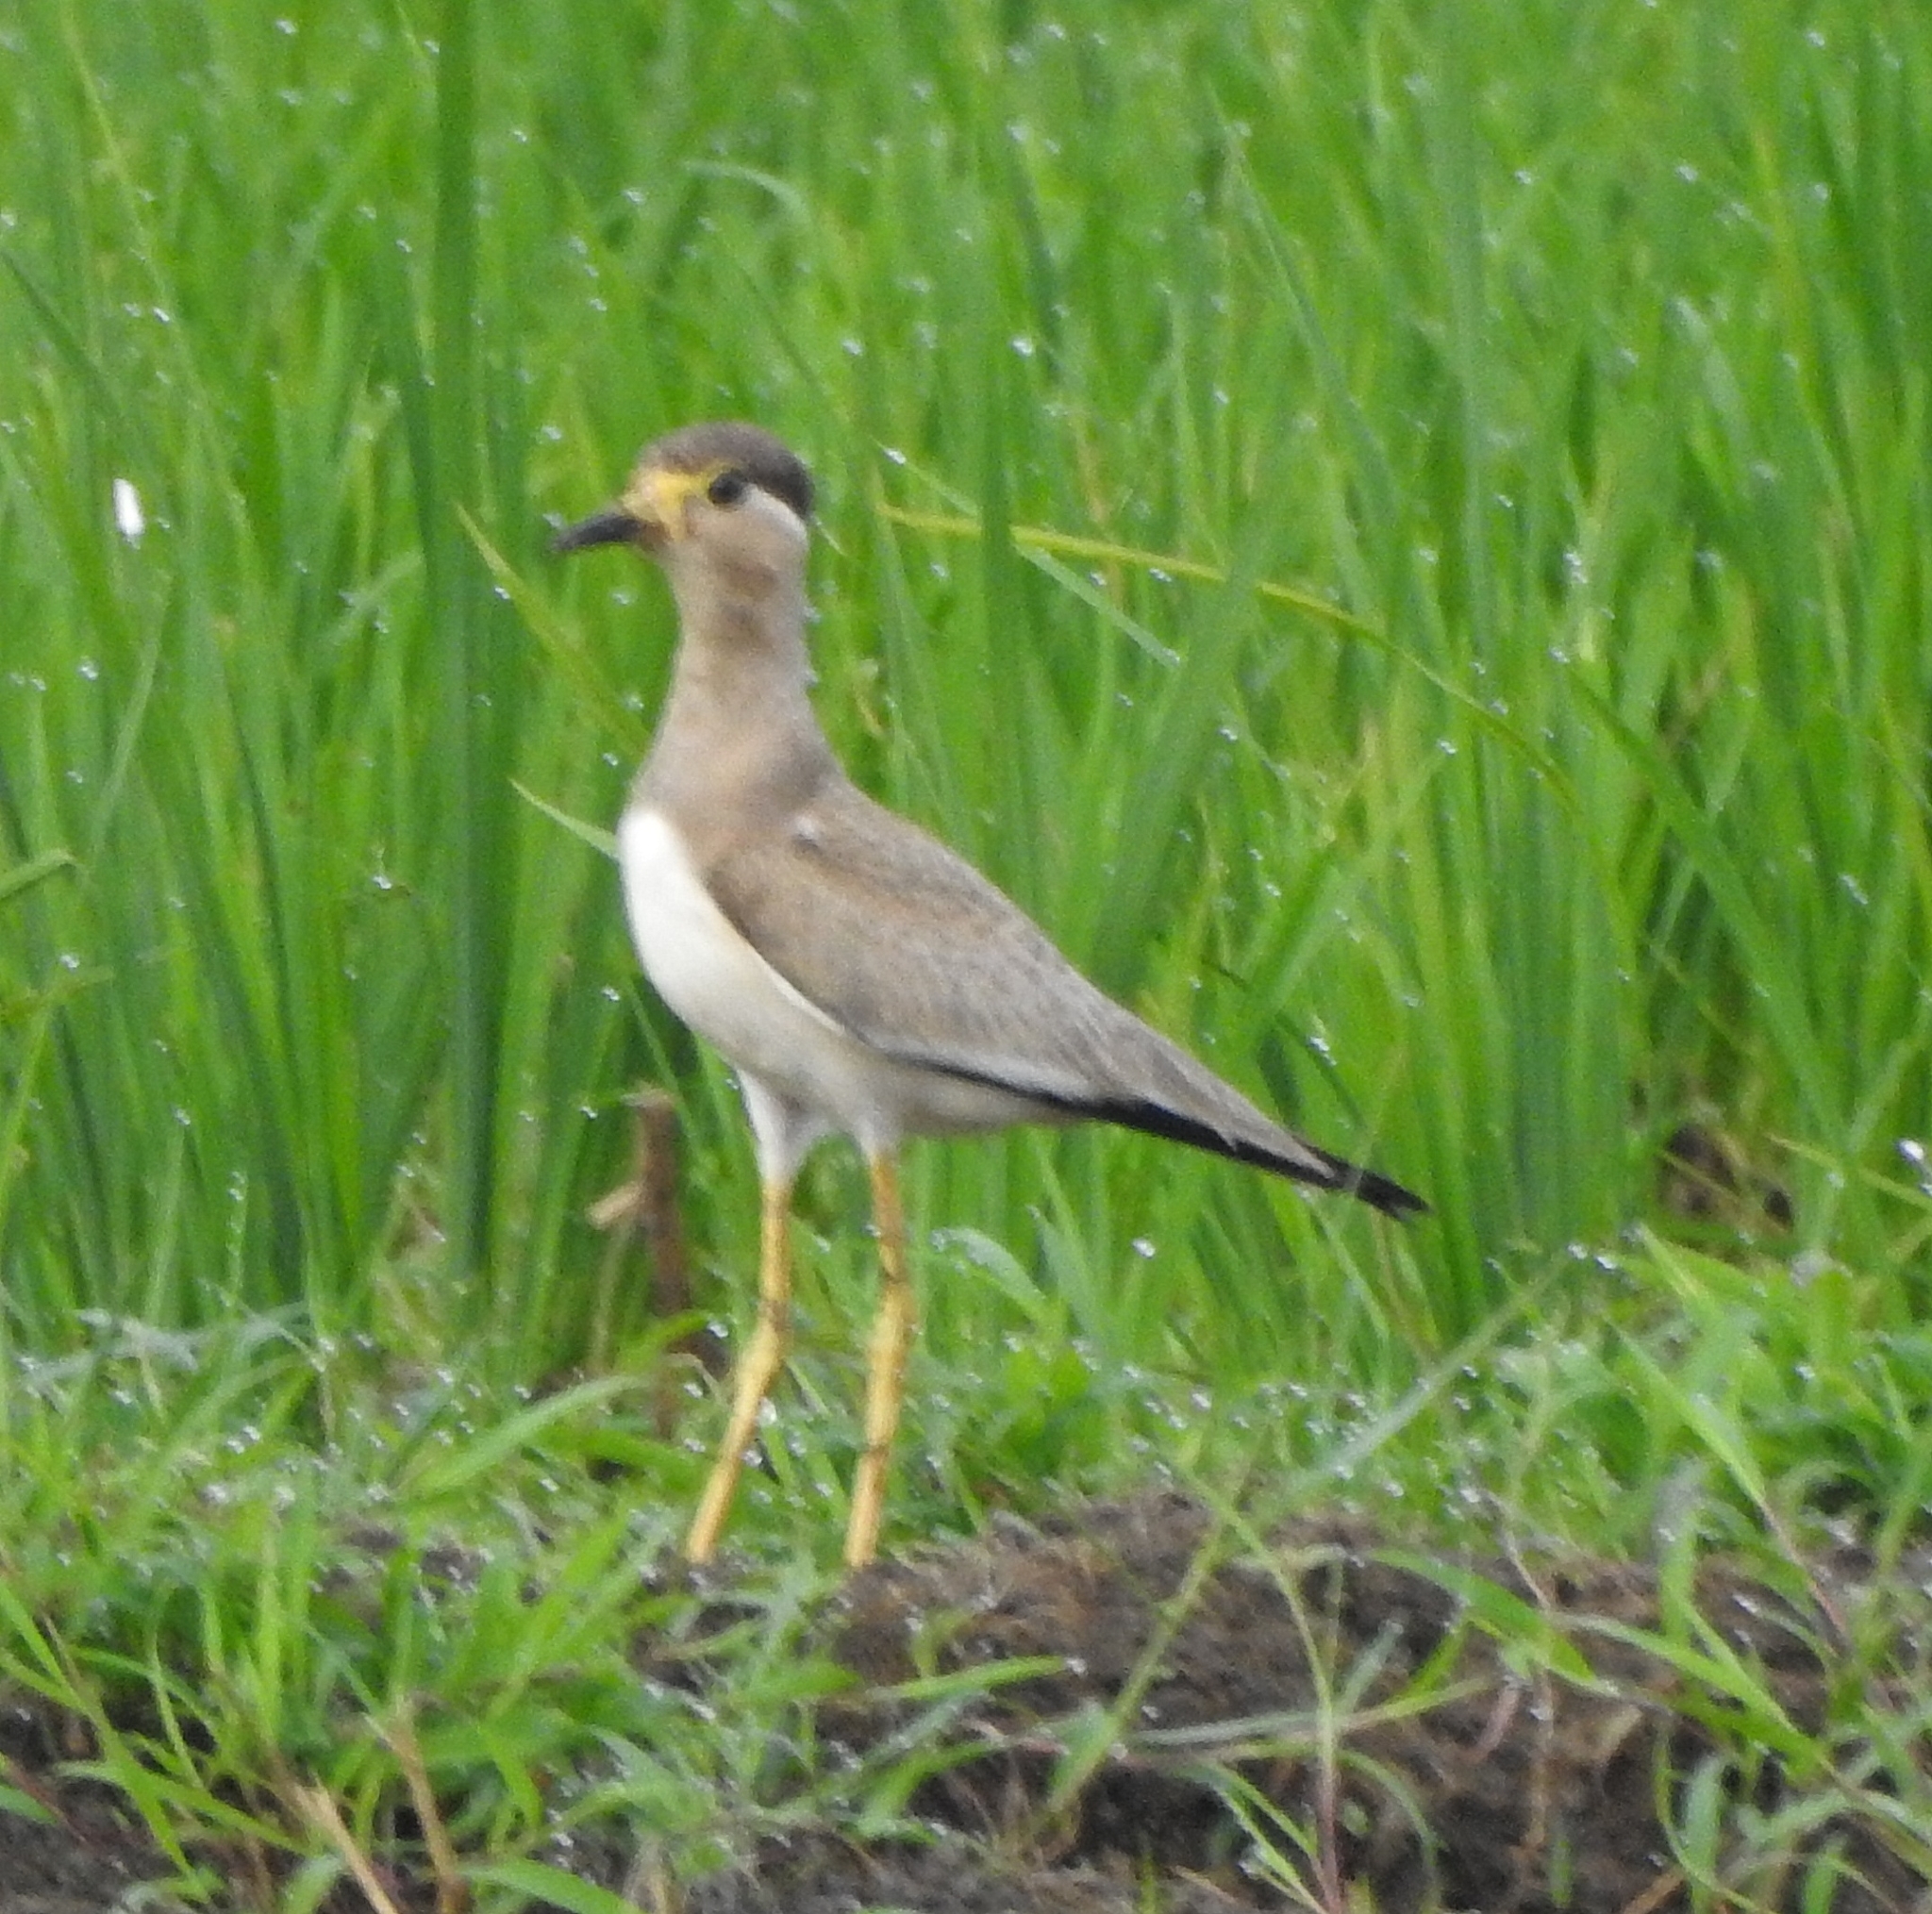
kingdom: Animalia
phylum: Chordata
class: Aves
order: Charadriiformes
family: Charadriidae
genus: Vanellus
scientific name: Vanellus malabaricus
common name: Yellow-wattled lapwing
